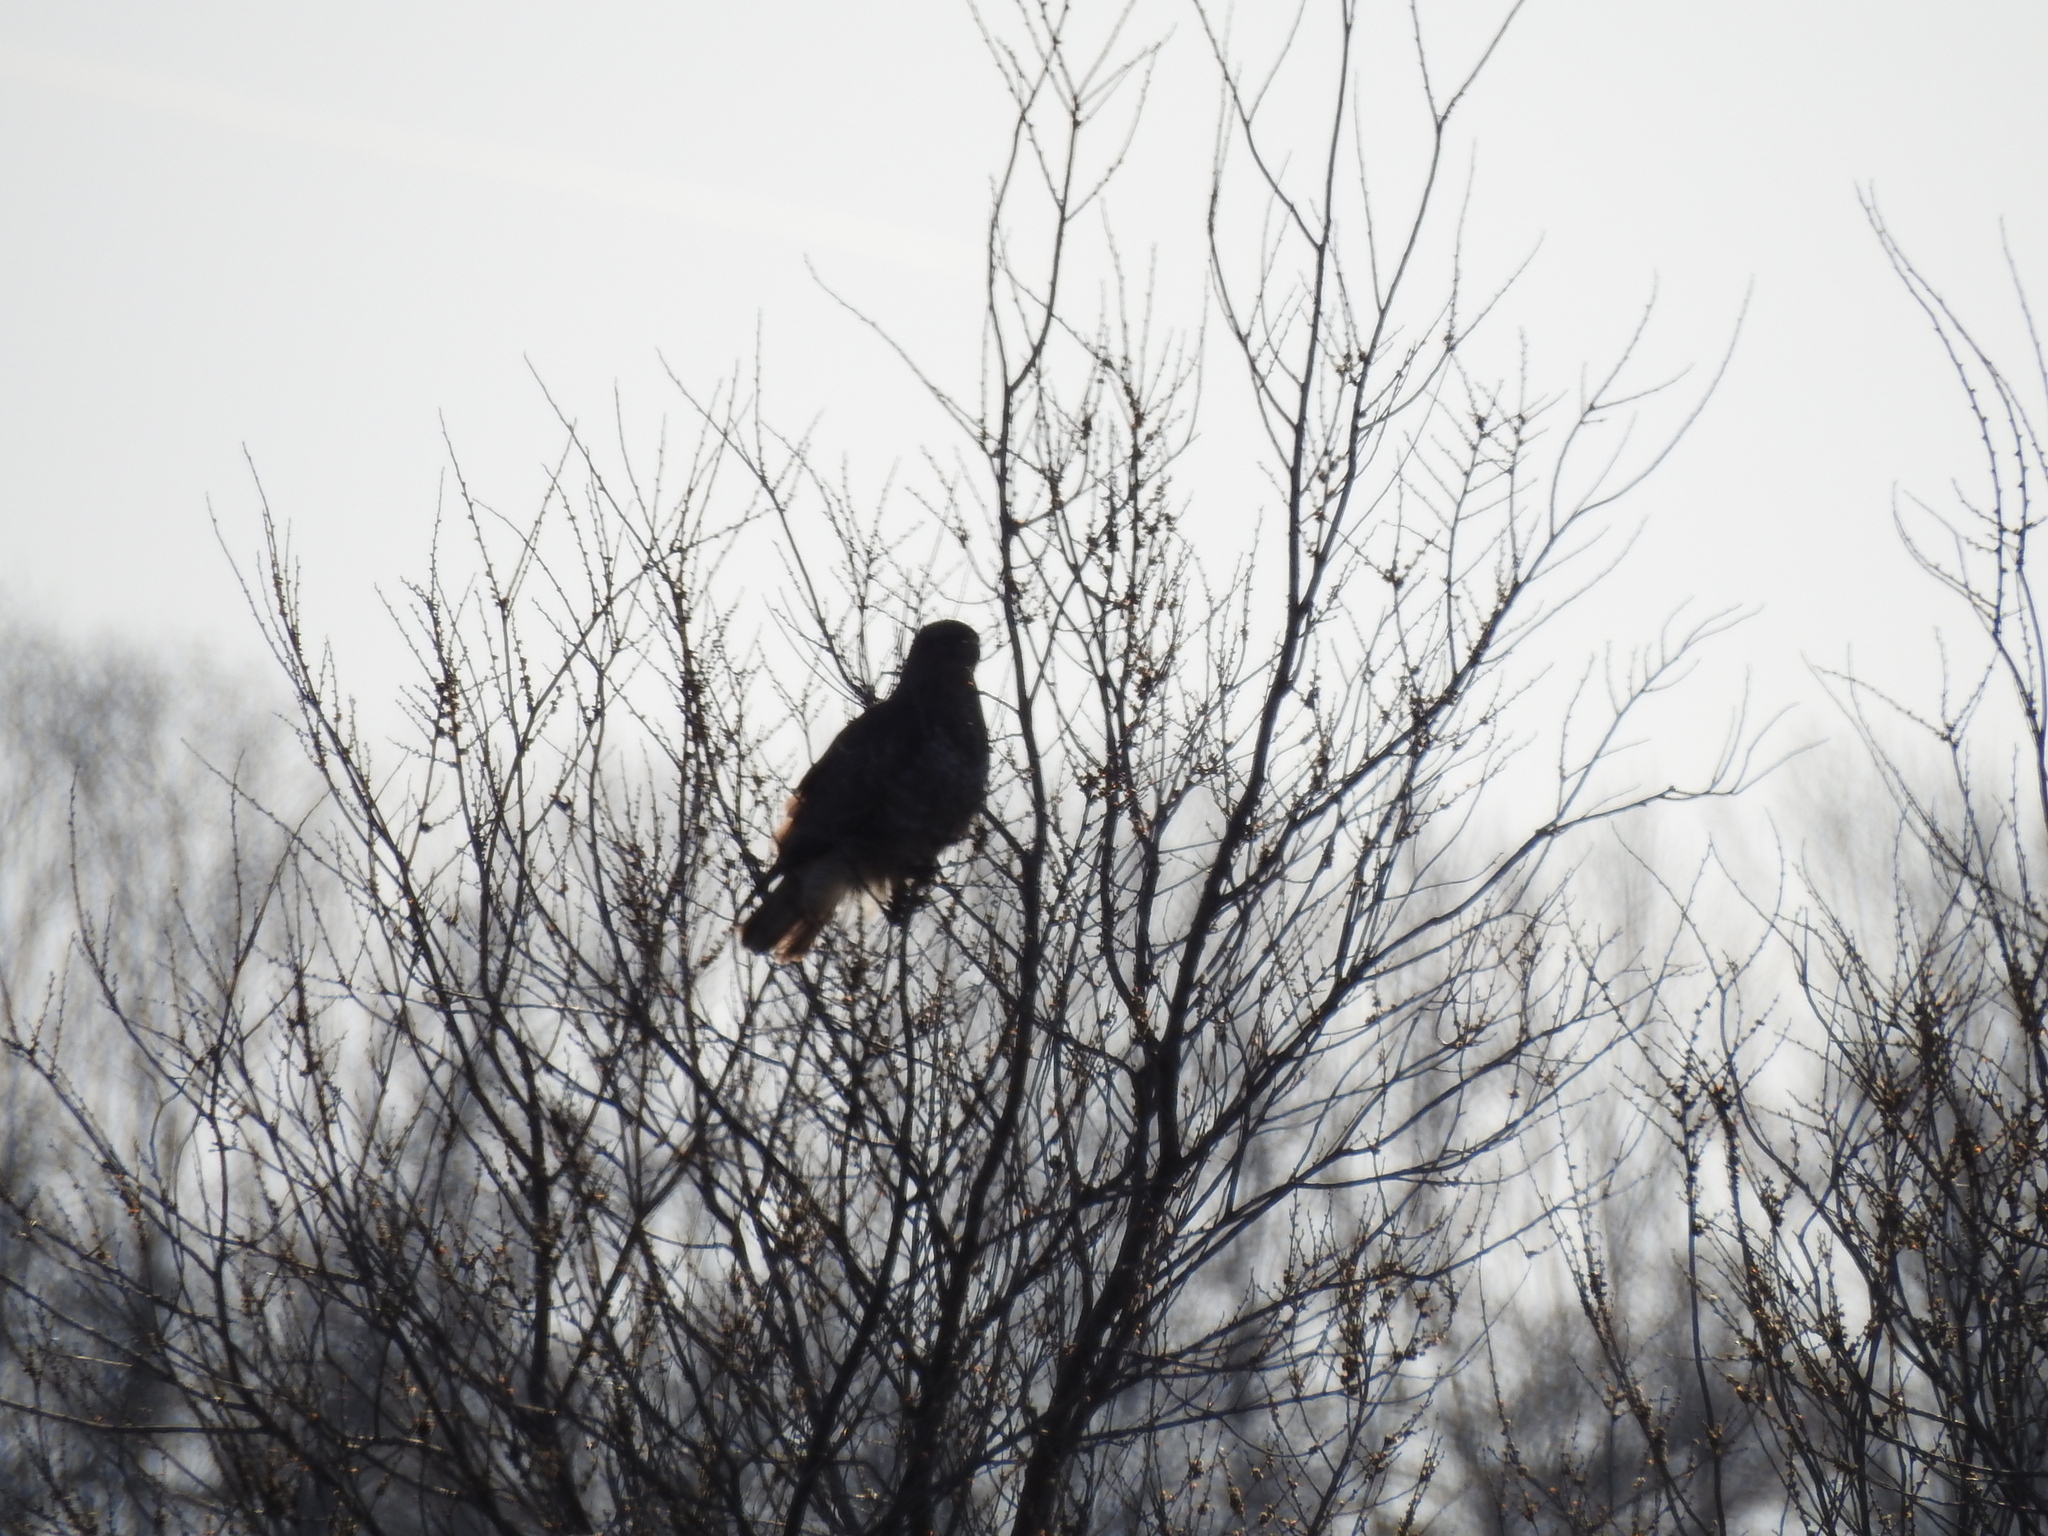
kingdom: Animalia
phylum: Chordata
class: Aves
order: Accipitriformes
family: Accipitridae
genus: Buteo
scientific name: Buteo buteo
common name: Common buzzard
